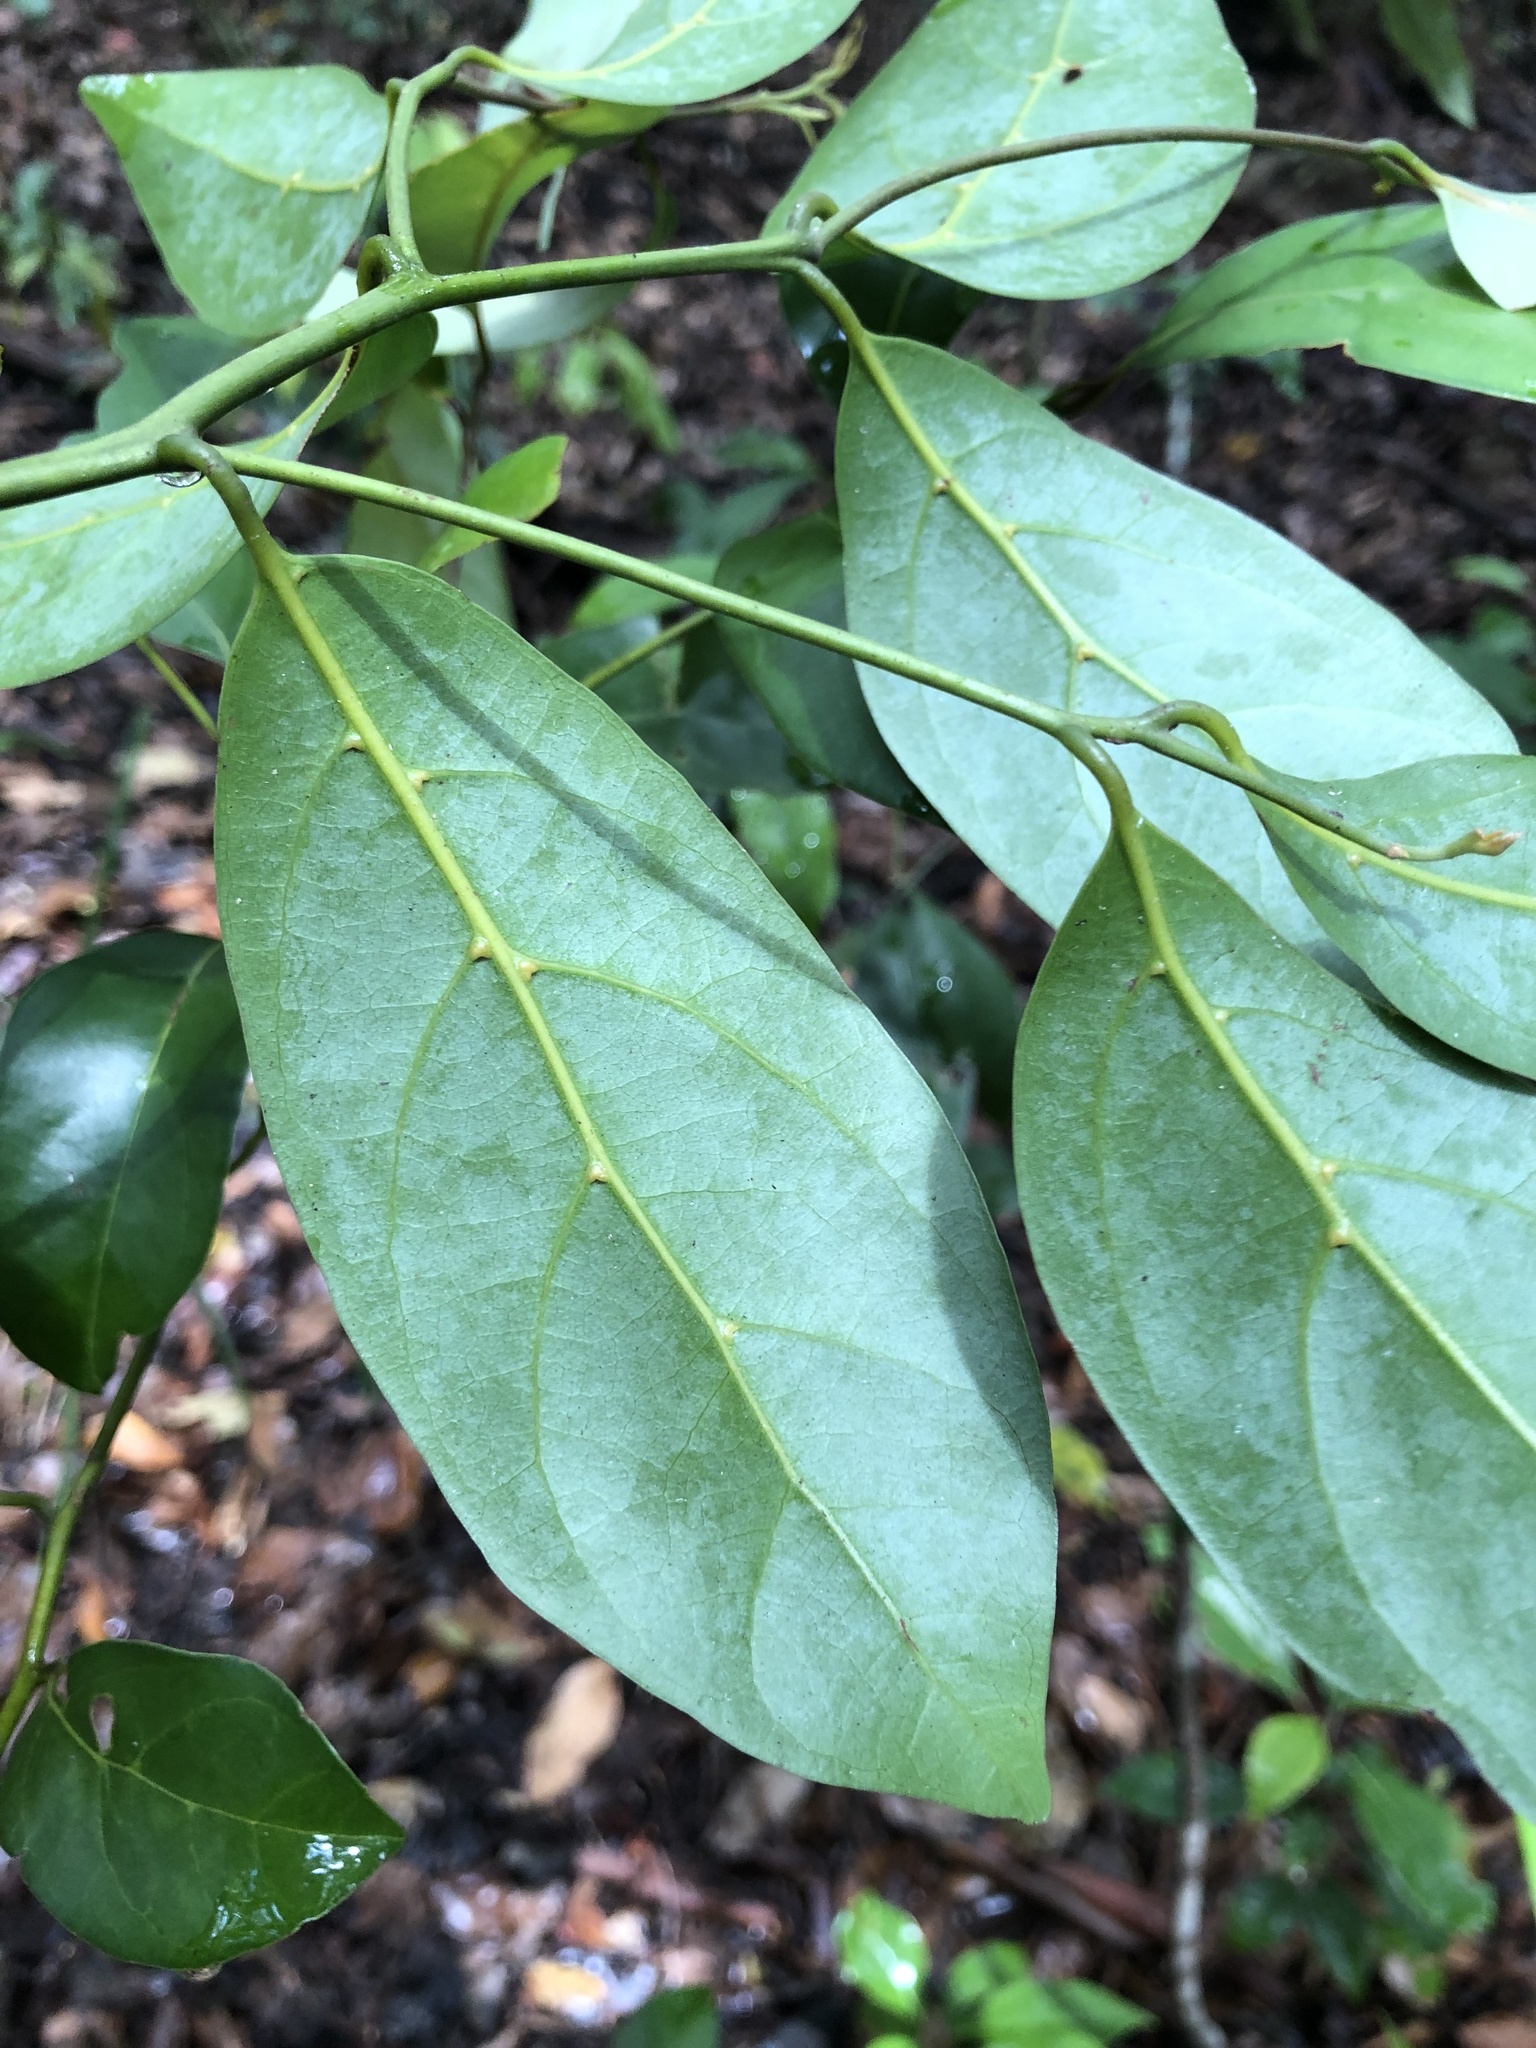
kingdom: Plantae
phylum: Tracheophyta
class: Magnoliopsida
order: Laurales
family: Lauraceae
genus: Endiandra
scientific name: Endiandra discolor
